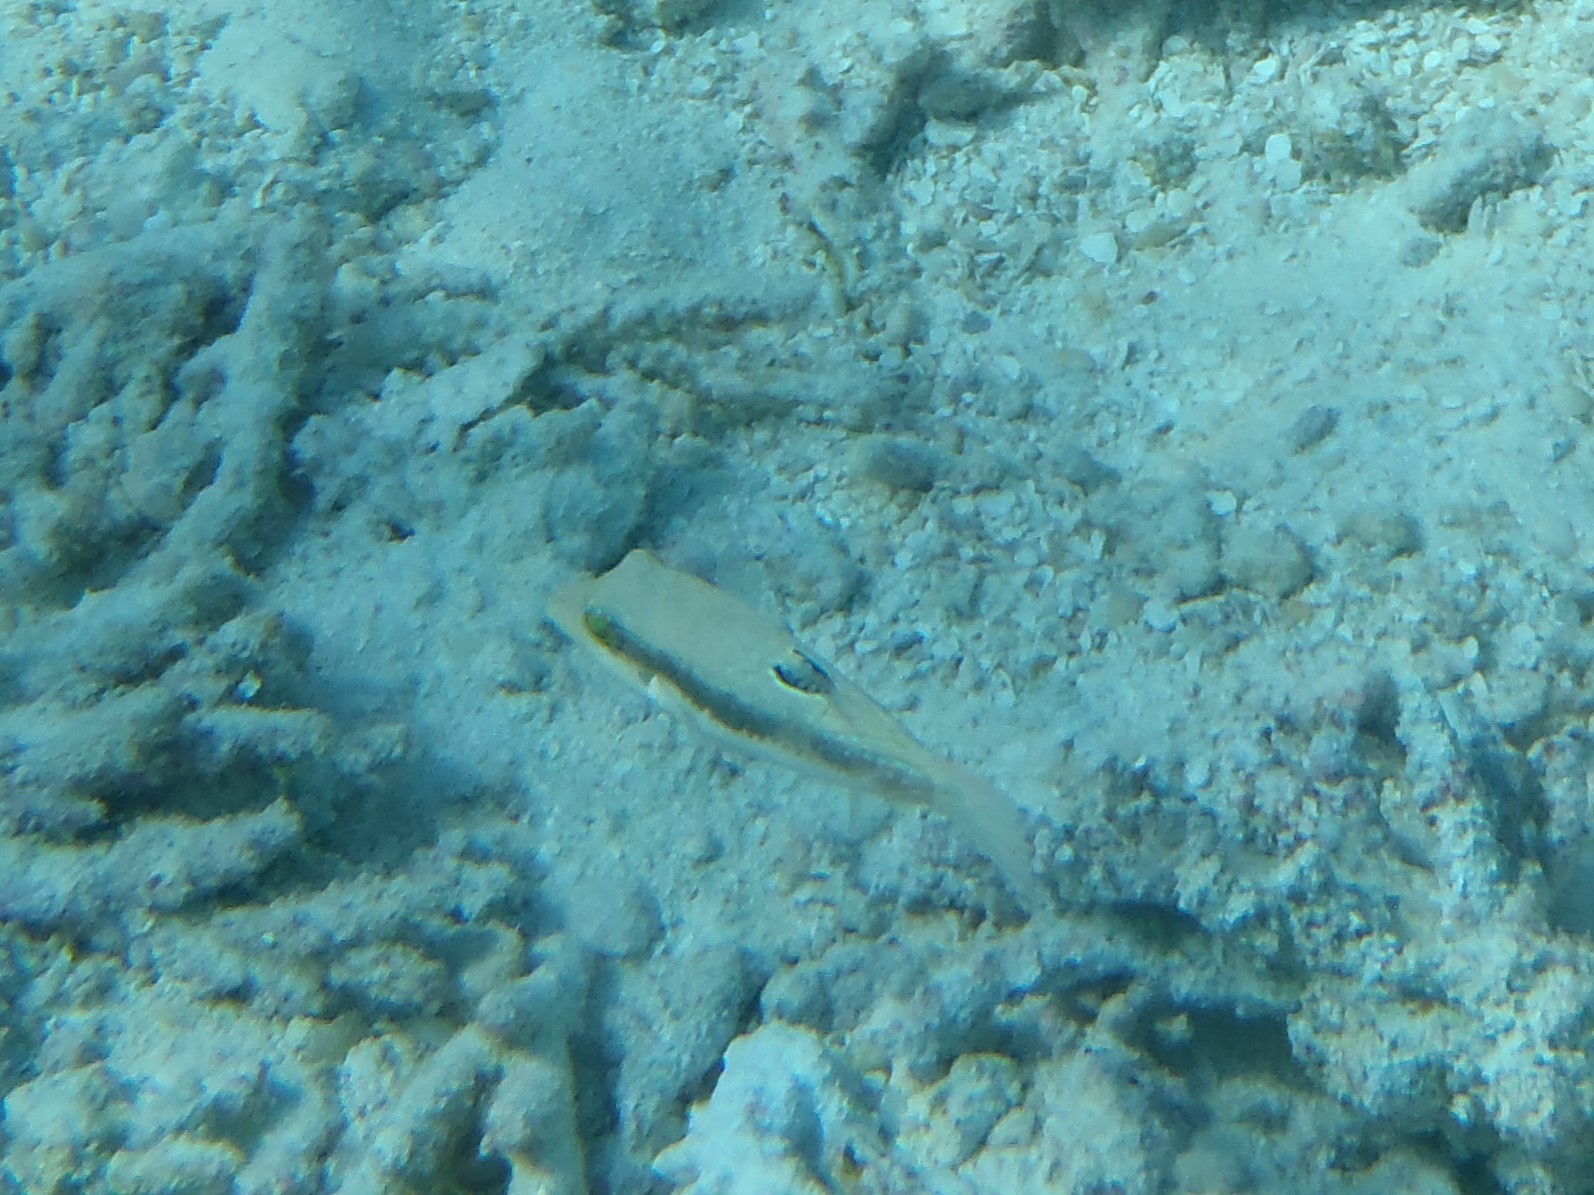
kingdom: Animalia
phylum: Chordata
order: Tetraodontiformes
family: Tetraodontidae
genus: Canthigaster
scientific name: Canthigaster bennetti
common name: Bennett's pufferfish
